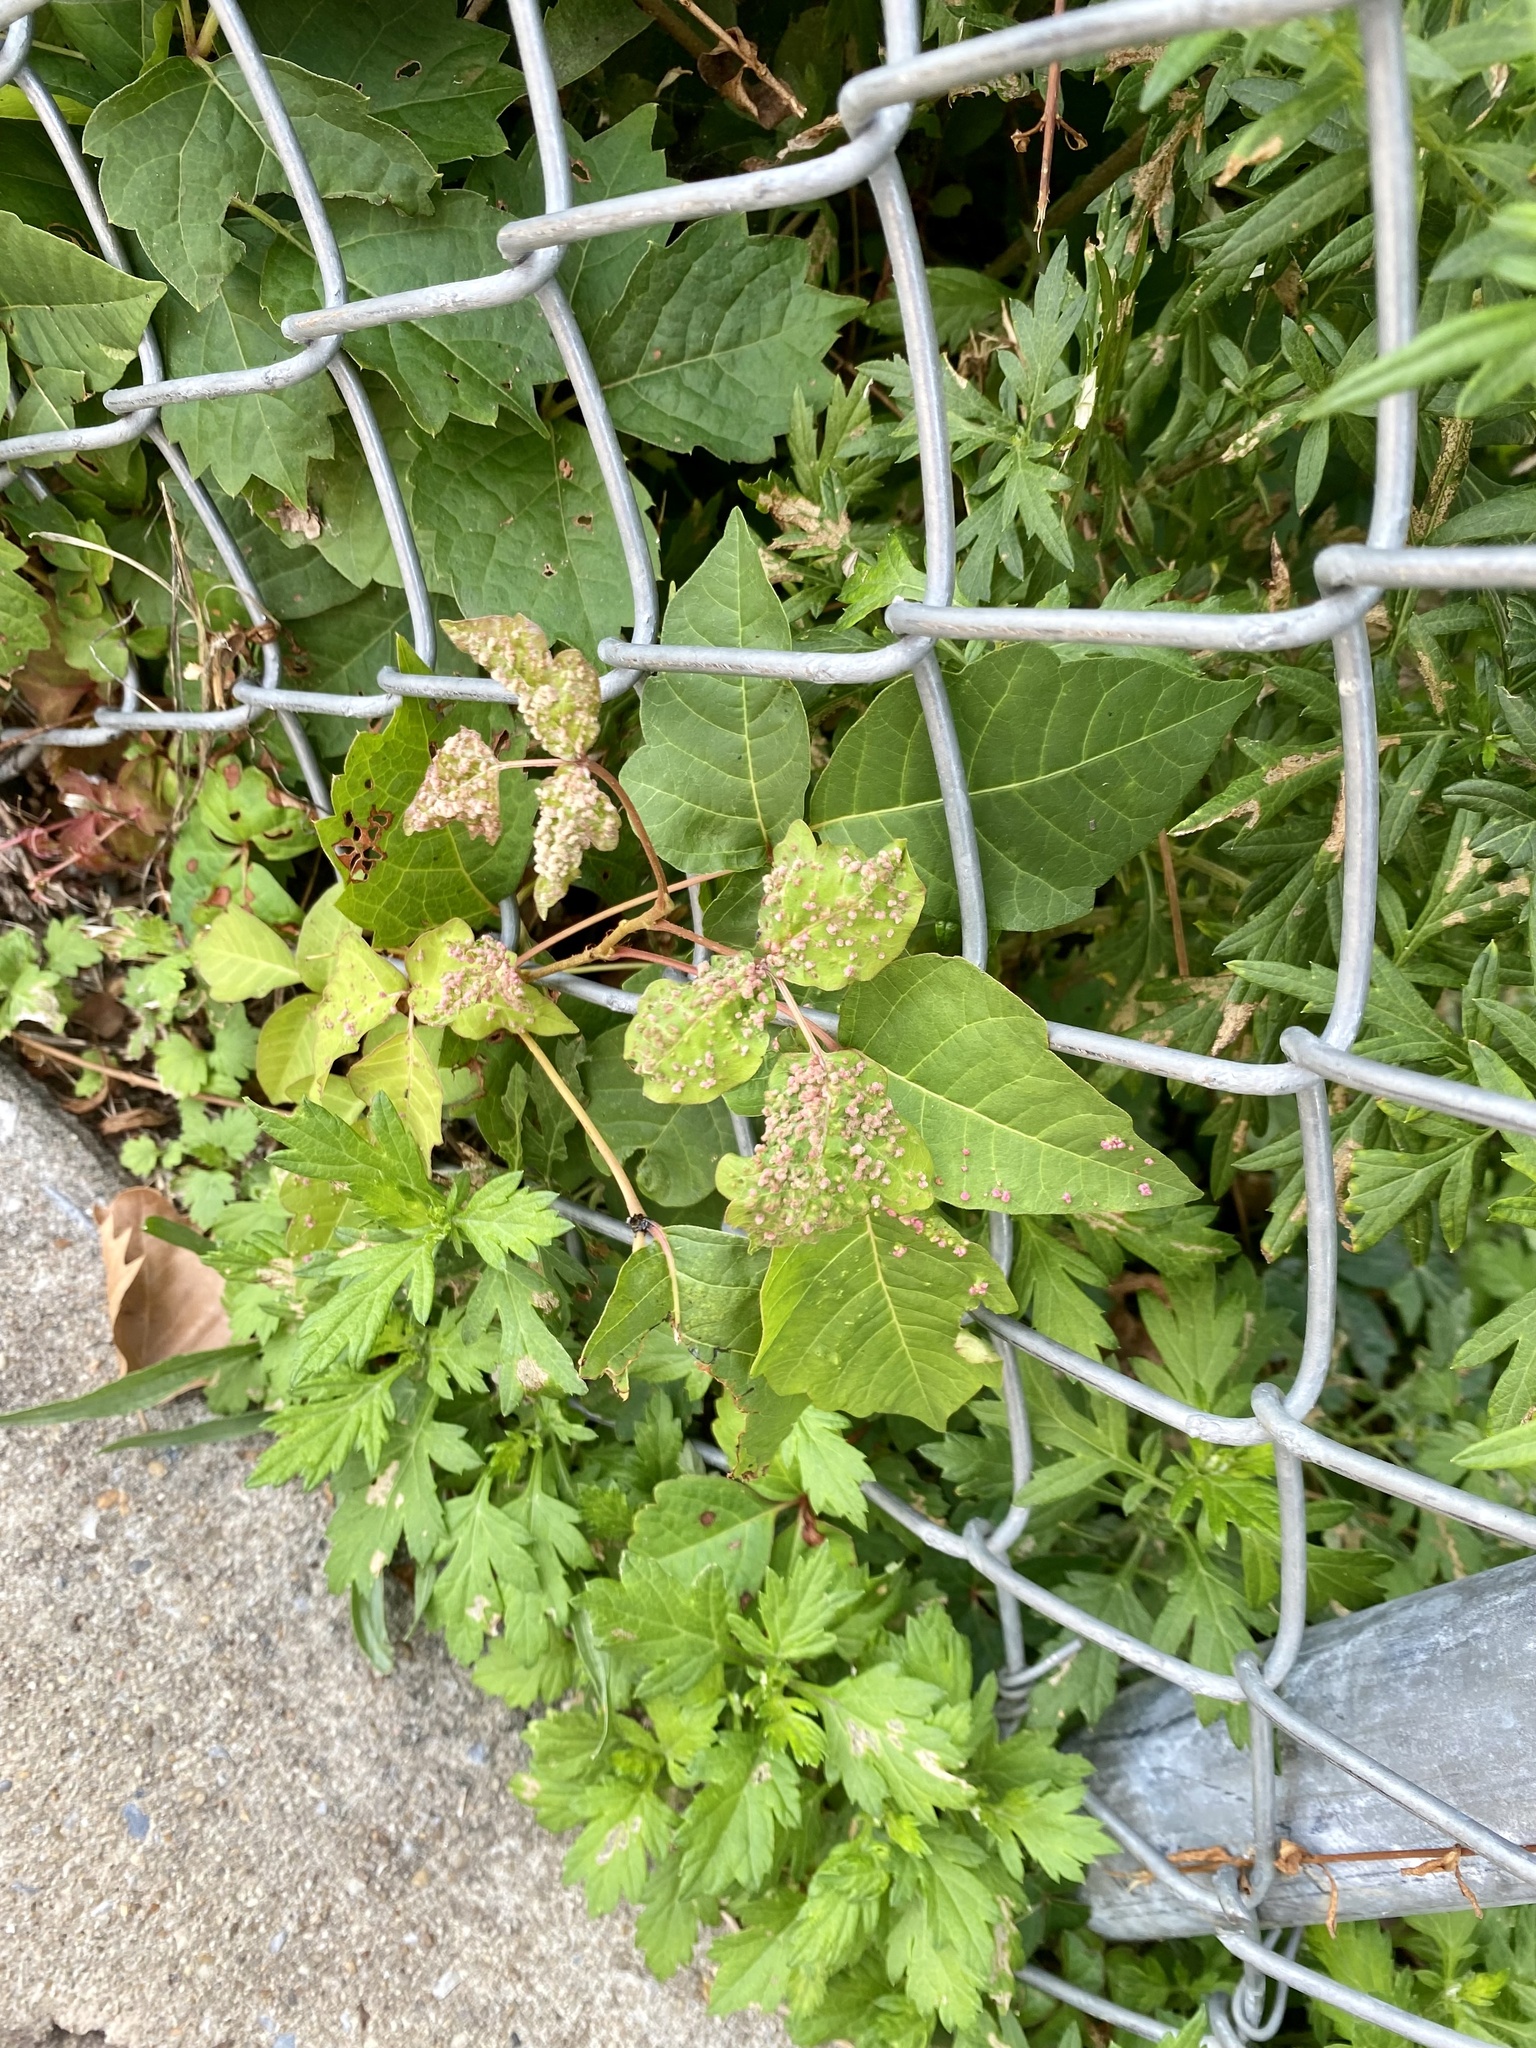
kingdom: Plantae
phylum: Tracheophyta
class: Magnoliopsida
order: Sapindales
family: Anacardiaceae
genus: Toxicodendron
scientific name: Toxicodendron radicans
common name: Poison ivy
